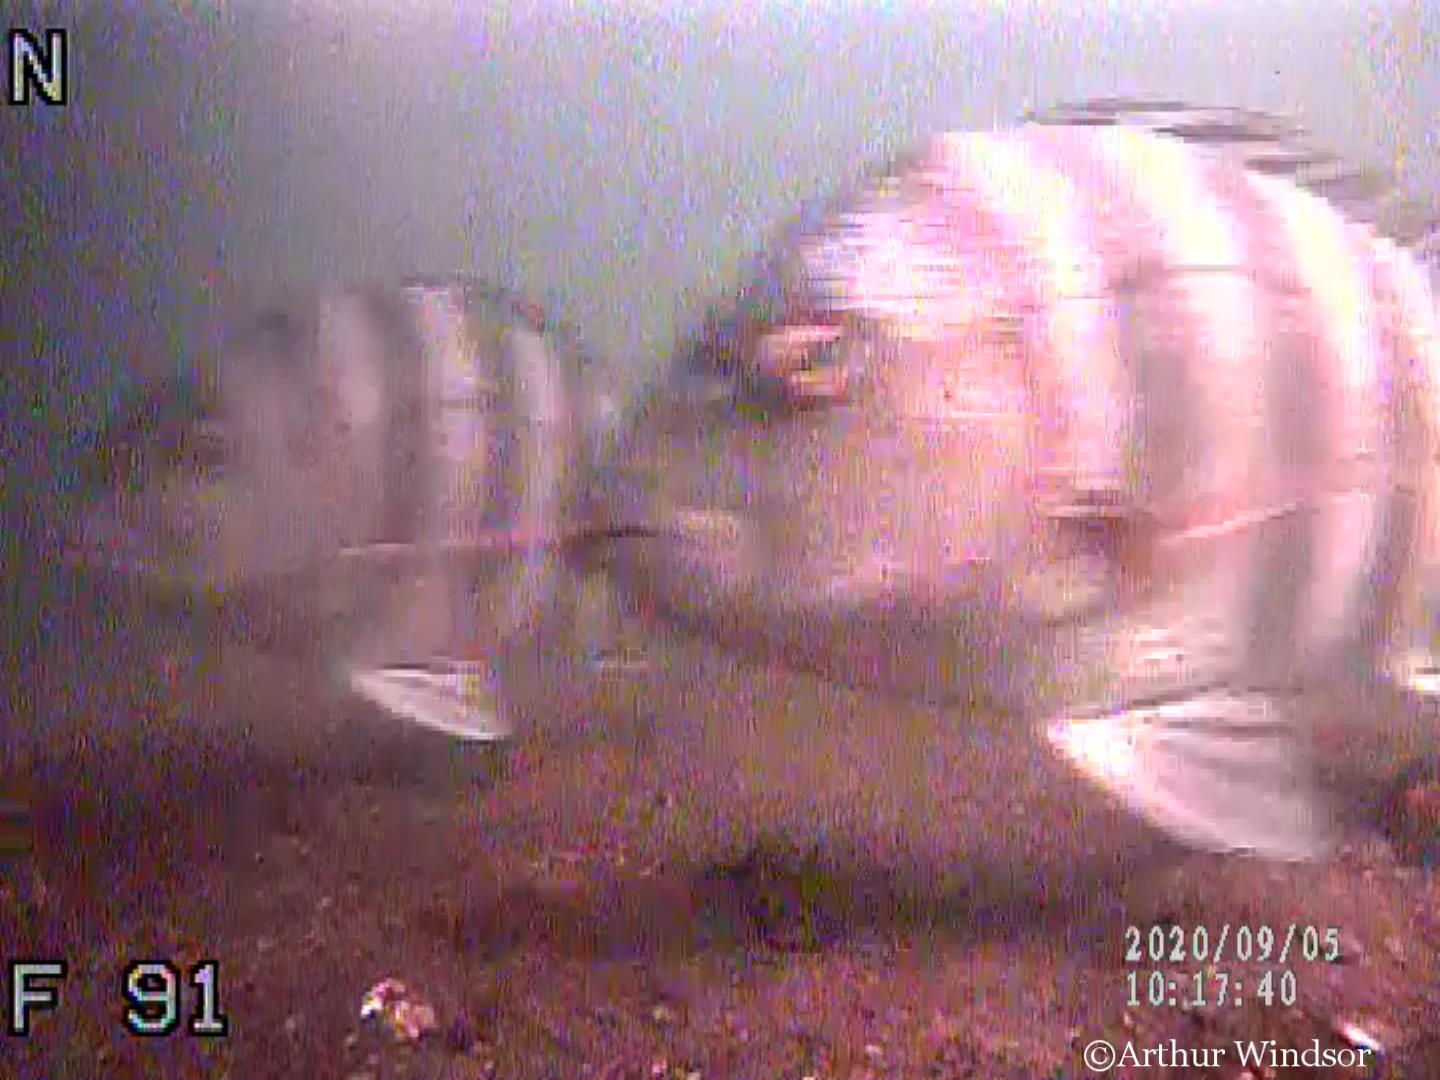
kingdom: Animalia
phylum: Chordata
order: Perciformes
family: Sparidae
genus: Archosargus
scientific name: Archosargus probatocephalus
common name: Sheepshead
